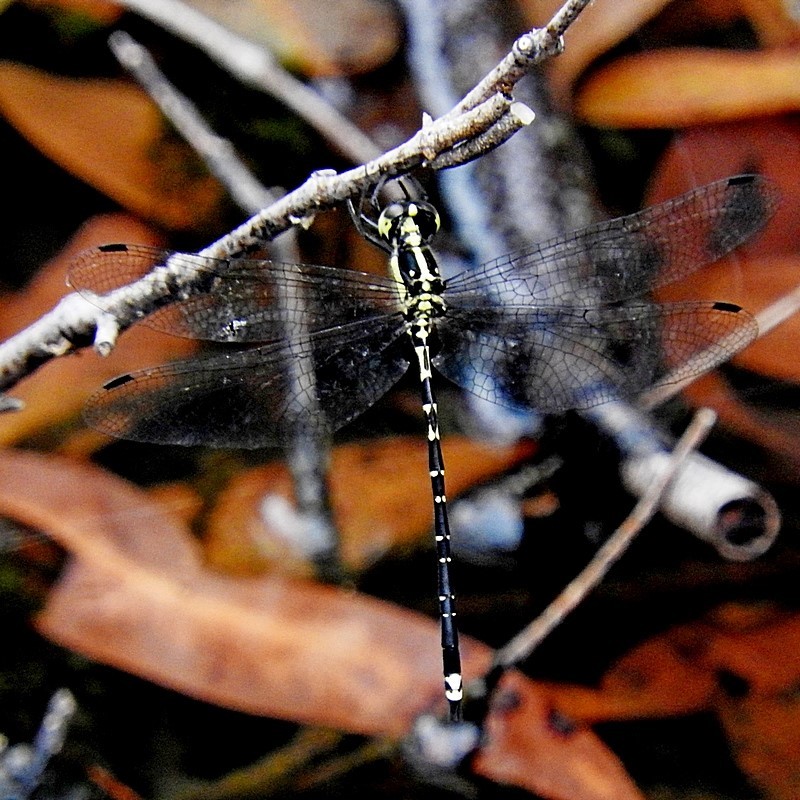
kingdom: Animalia
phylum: Arthropoda
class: Insecta
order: Odonata
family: Synthemistidae
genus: Choristhemis
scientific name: Choristhemis flavoterminata
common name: Yellow-tipped tigertail
